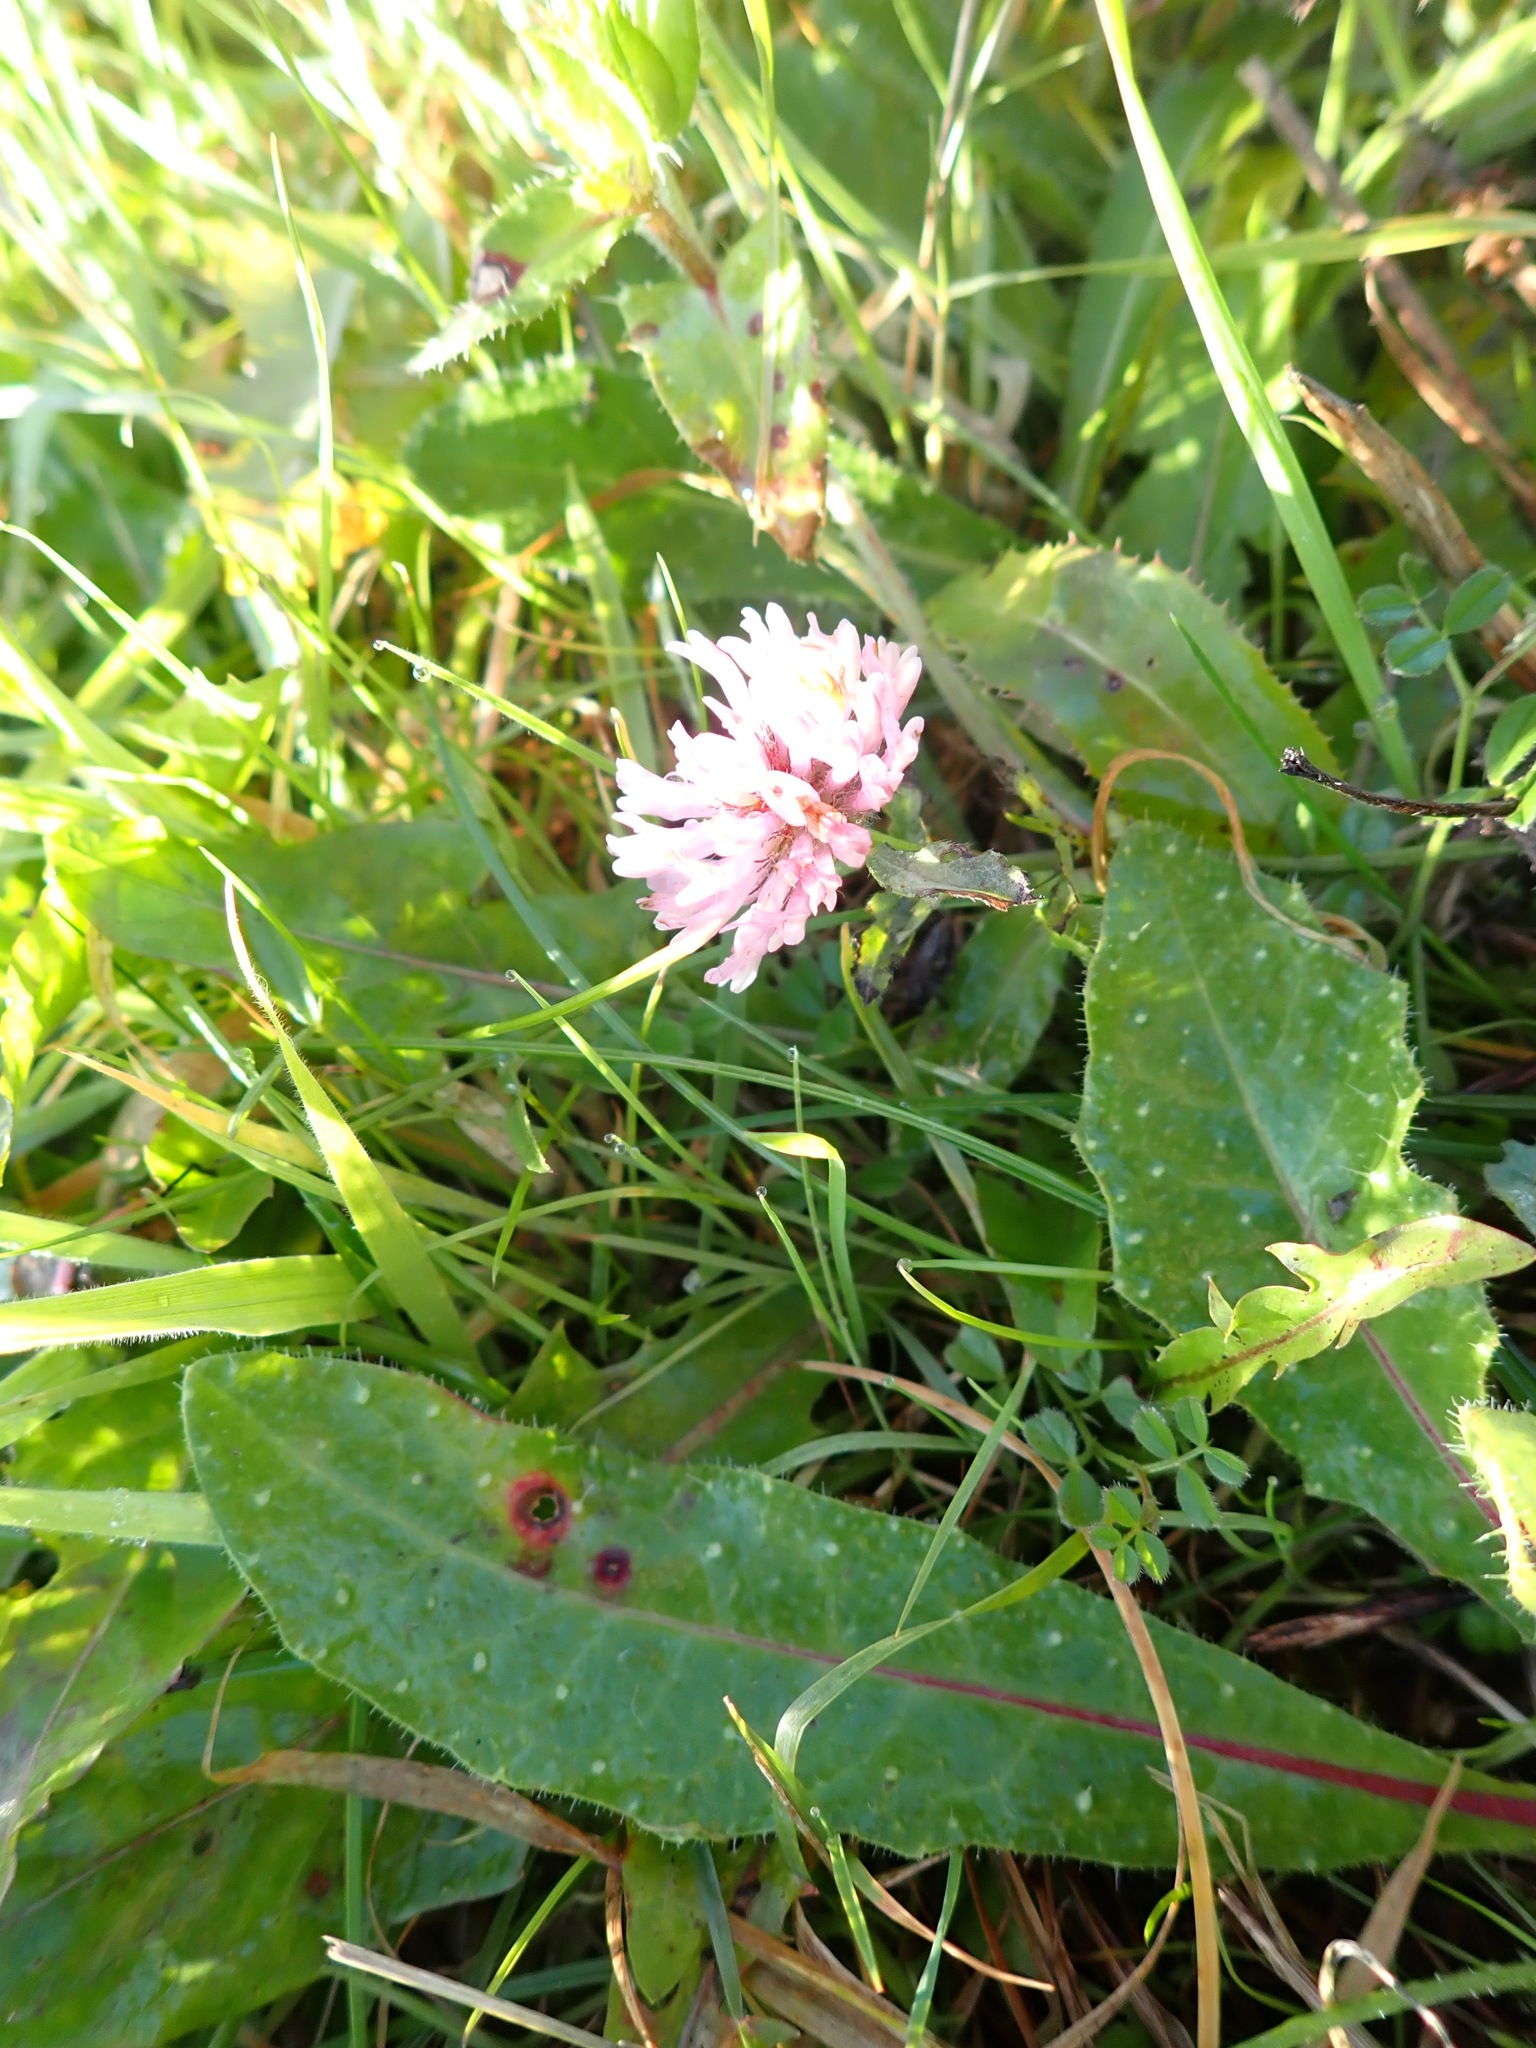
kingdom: Plantae
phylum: Tracheophyta
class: Magnoliopsida
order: Fabales
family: Fabaceae
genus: Trifolium
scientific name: Trifolium pratense
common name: Red clover
